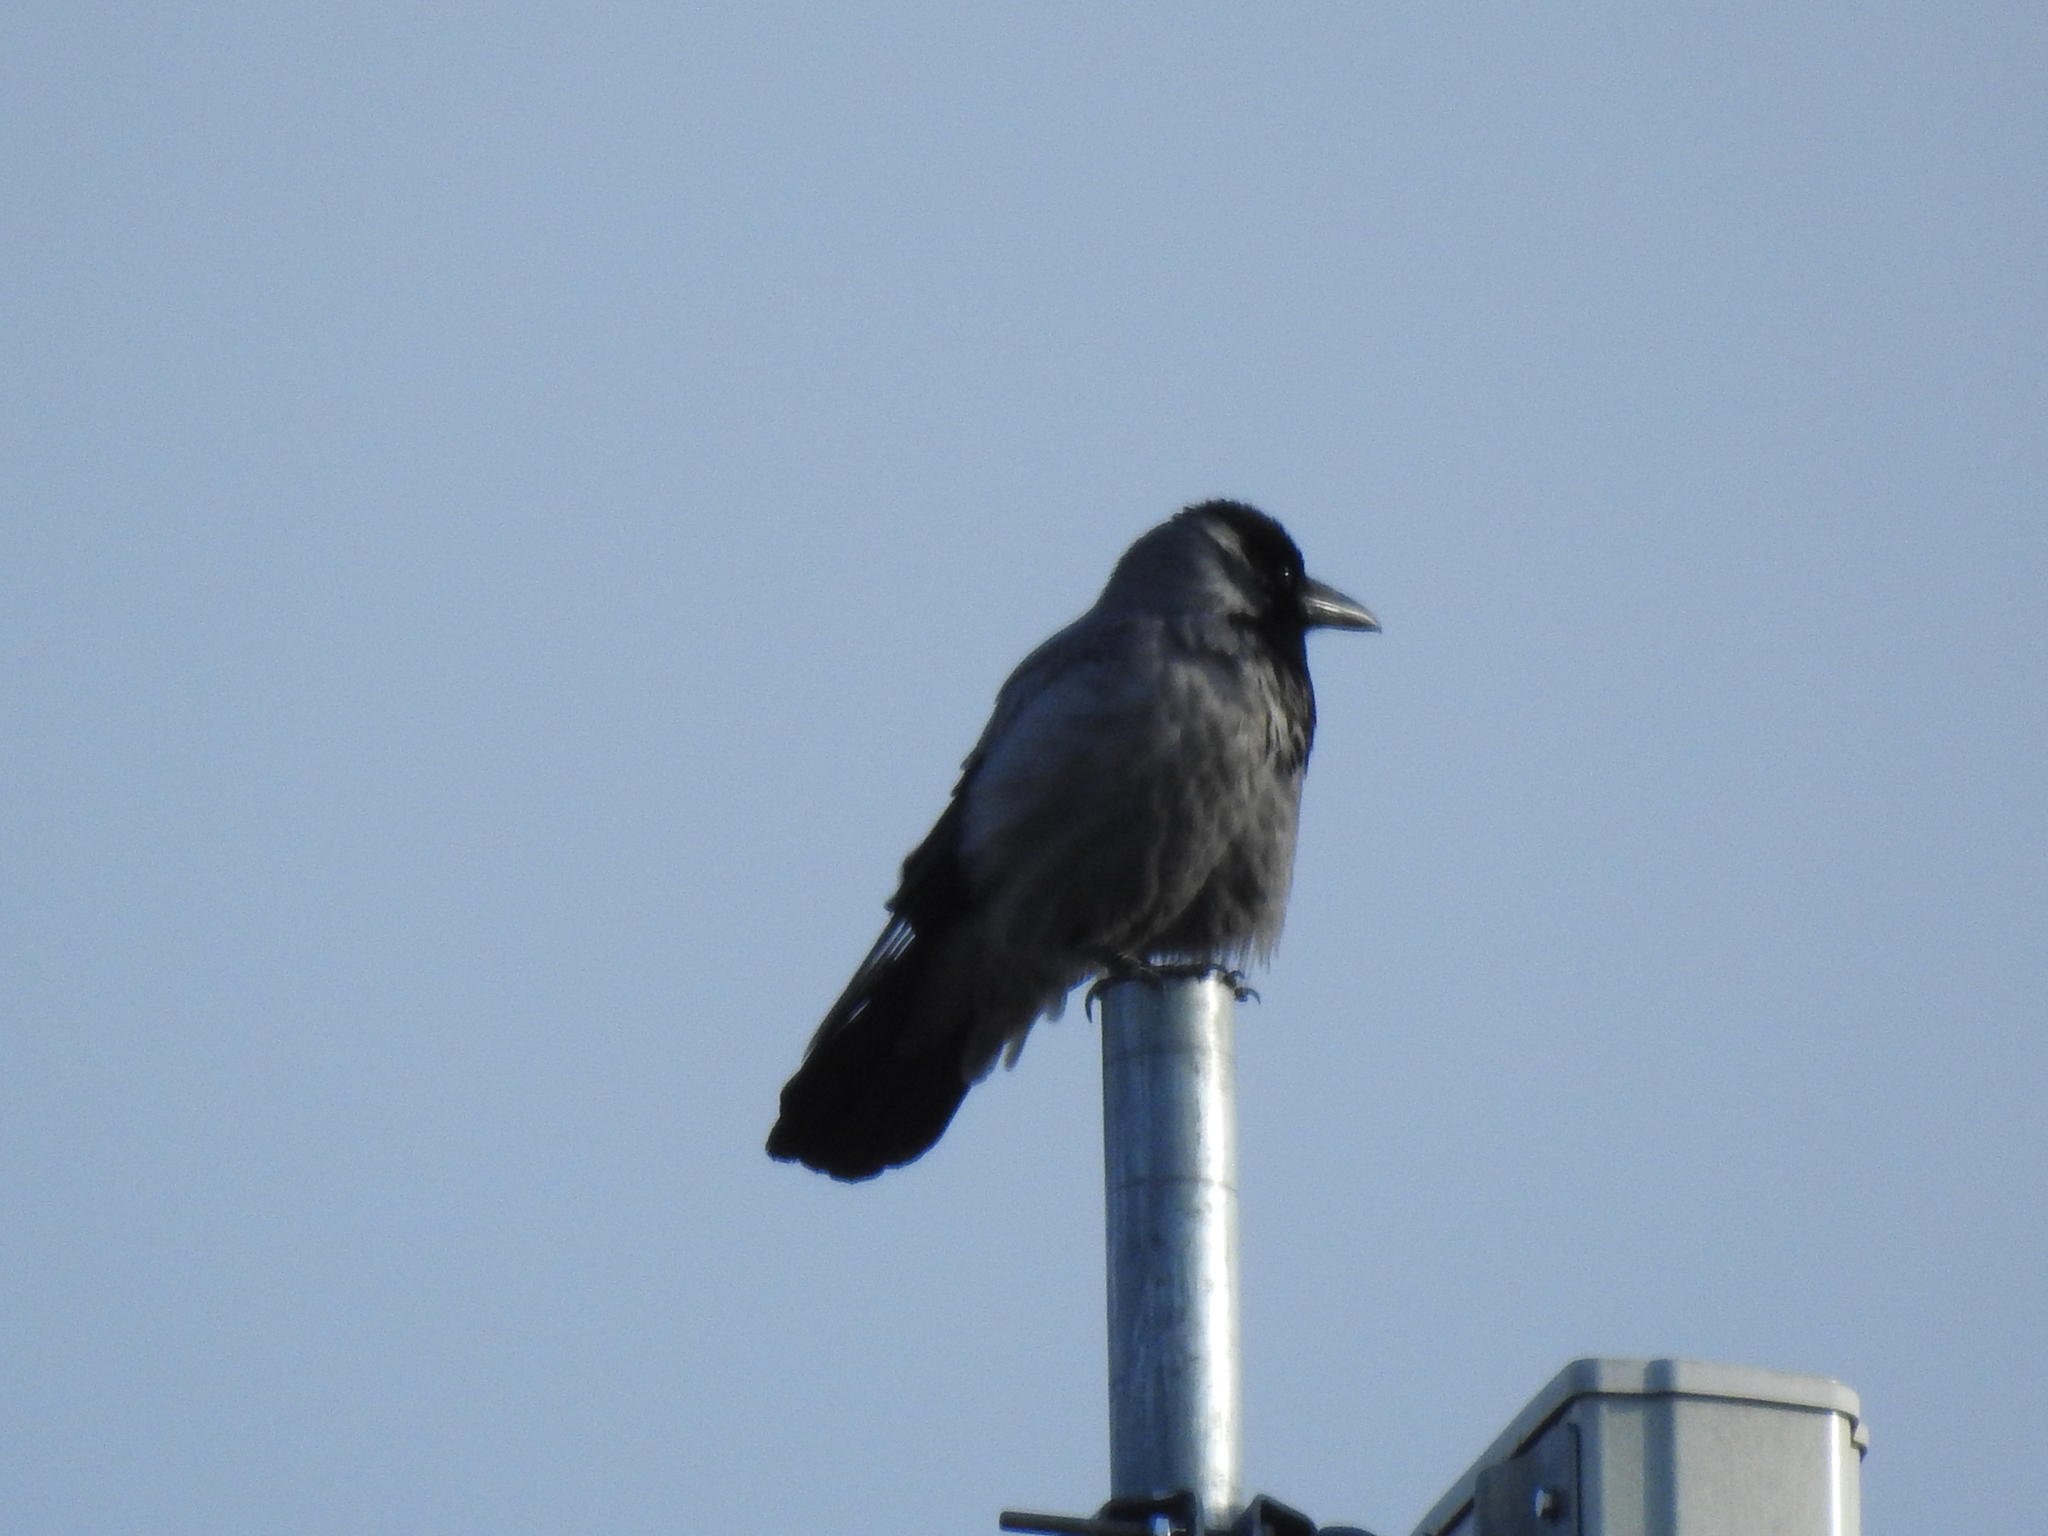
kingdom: Animalia
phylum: Chordata
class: Aves
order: Passeriformes
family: Corvidae
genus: Corvus
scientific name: Corvus cornix
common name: Hooded crow
